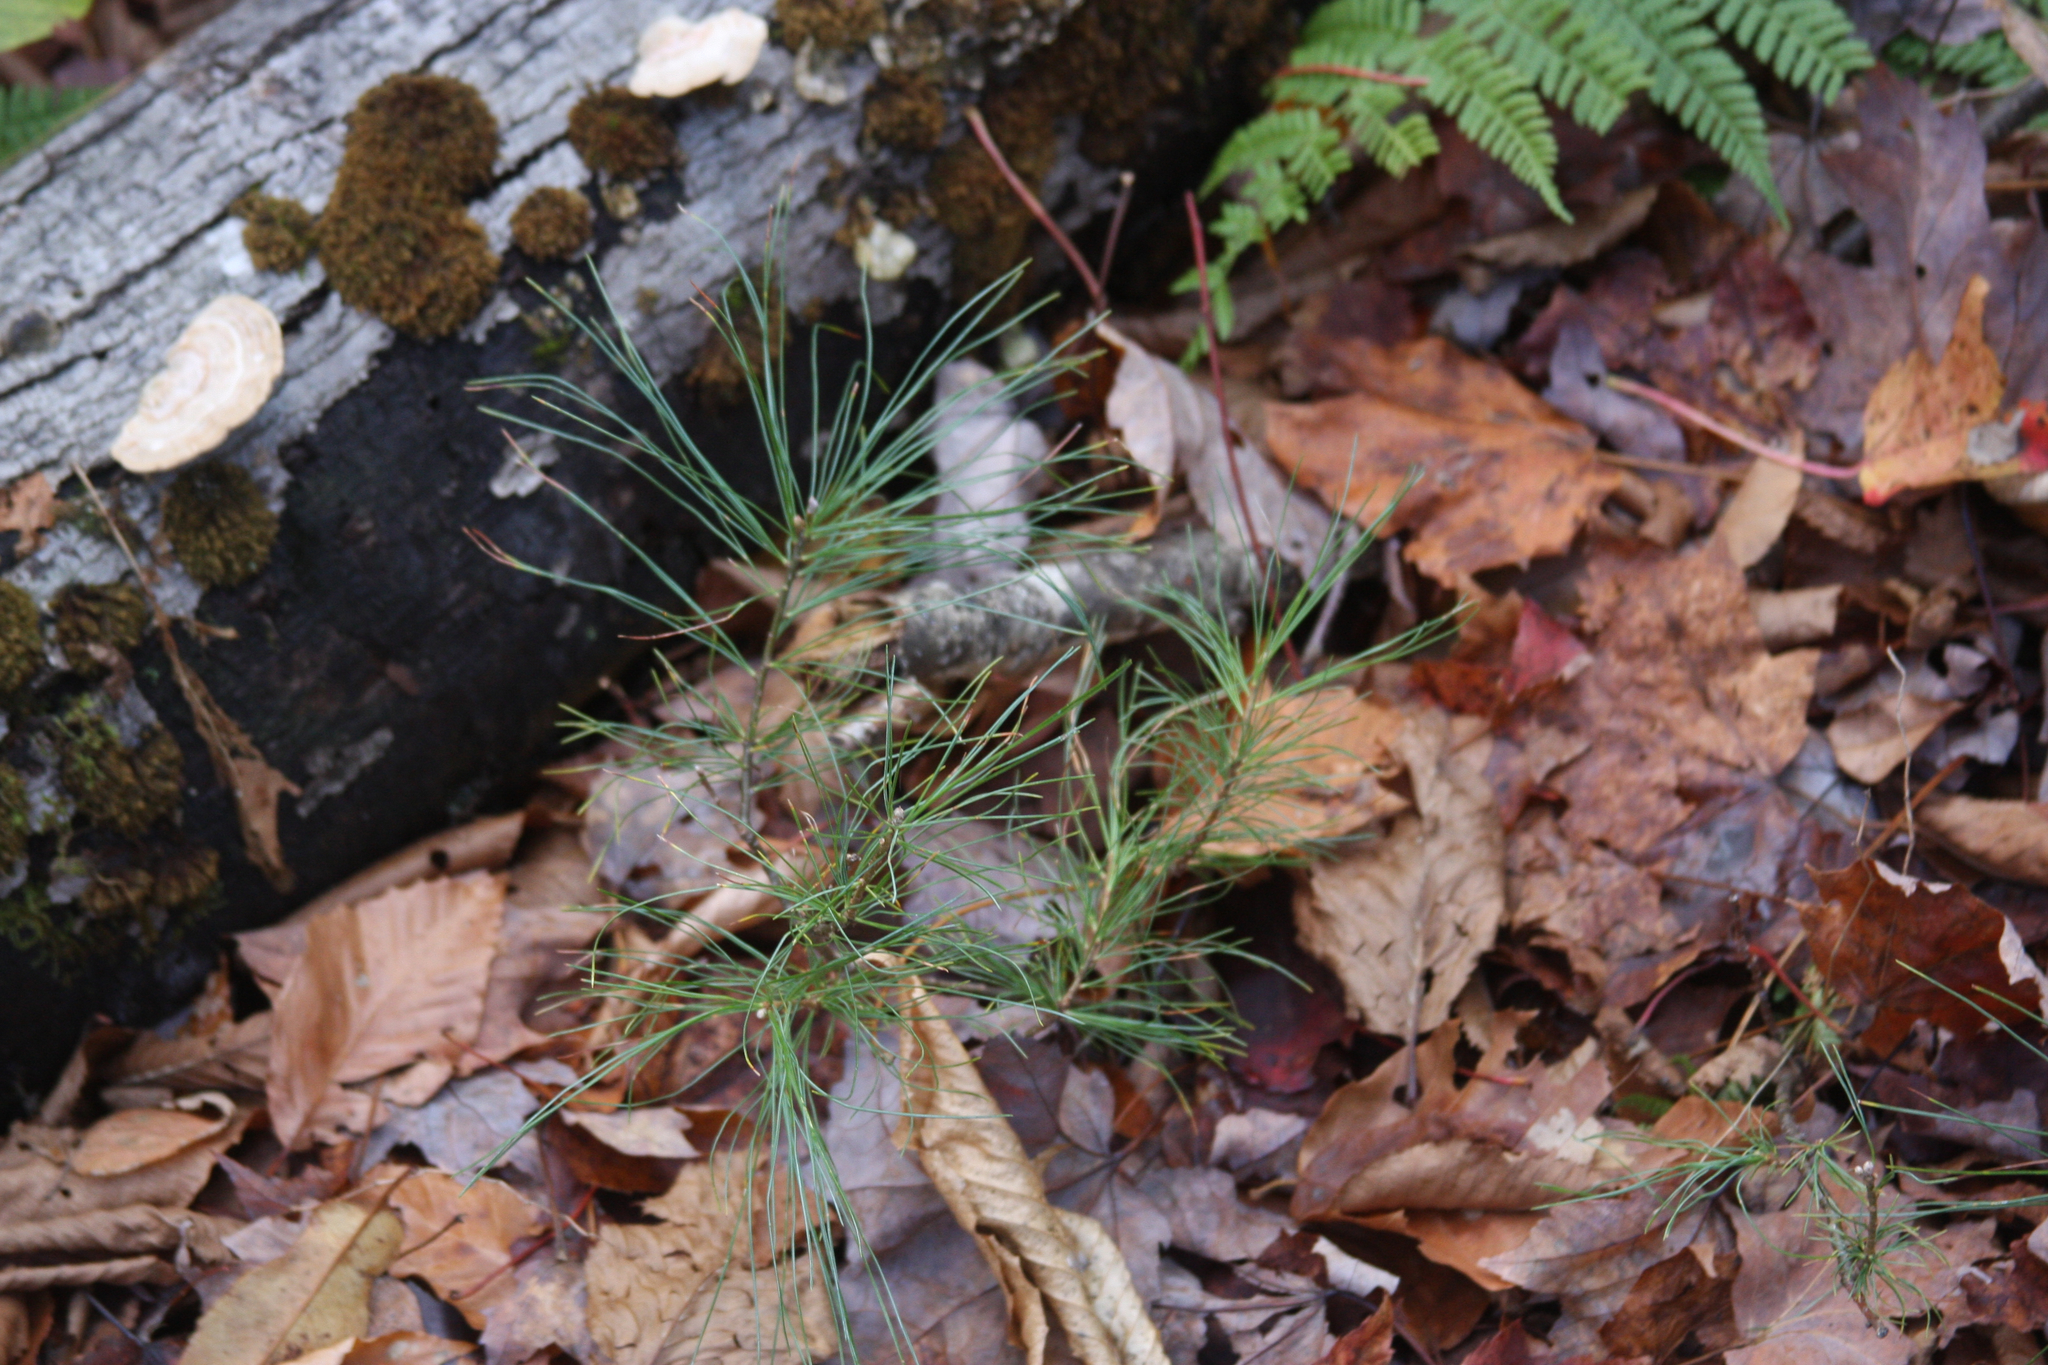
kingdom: Plantae
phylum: Tracheophyta
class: Pinopsida
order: Pinales
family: Pinaceae
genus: Pinus
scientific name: Pinus strobus
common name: Weymouth pine
